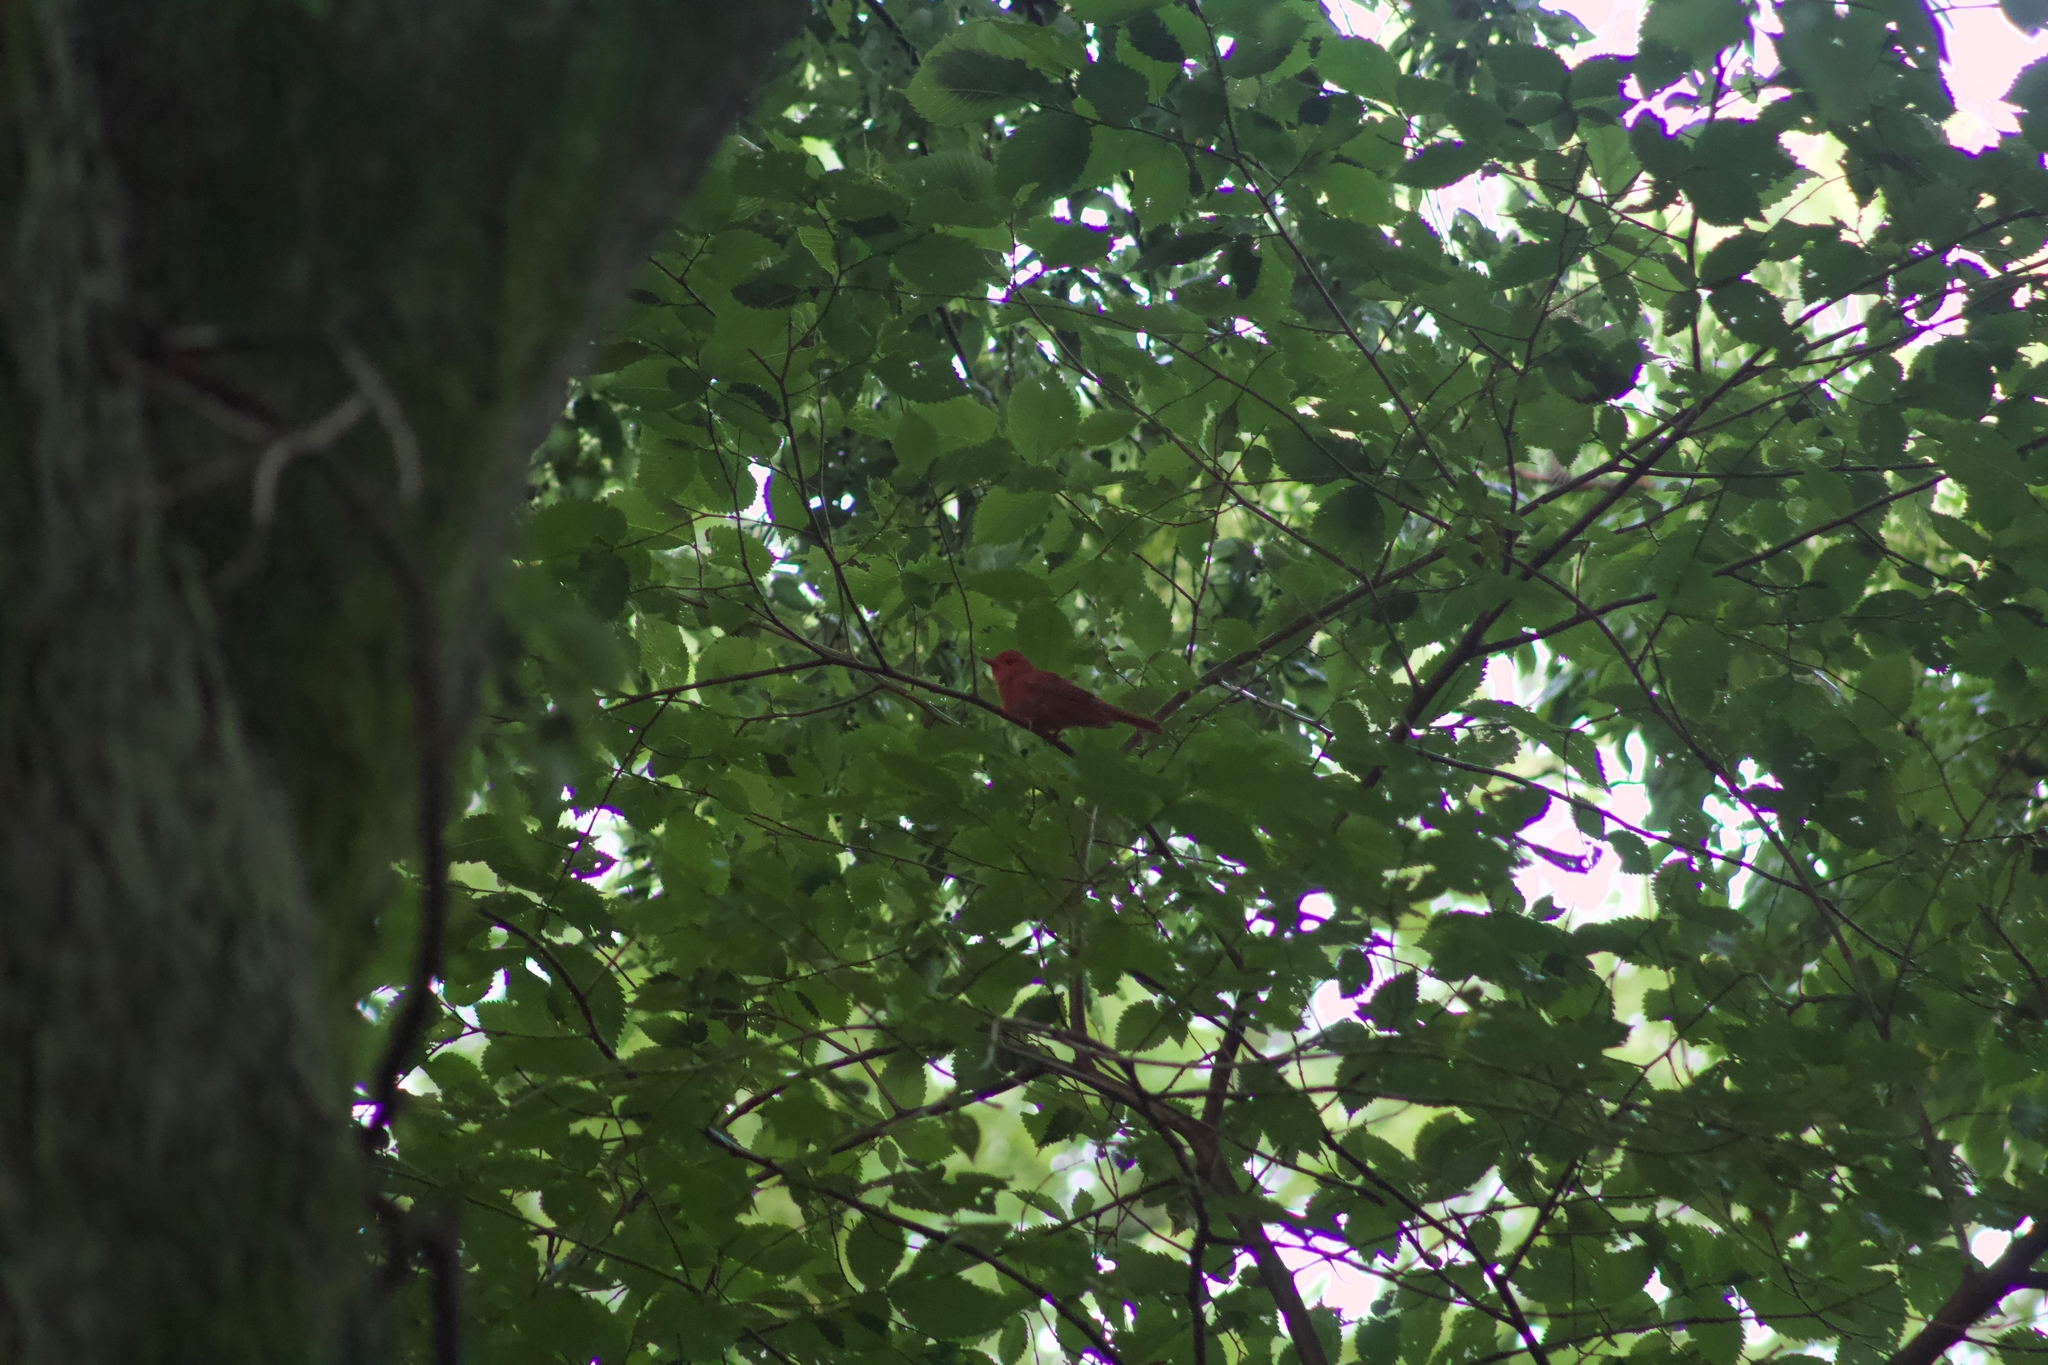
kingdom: Animalia
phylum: Chordata
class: Aves
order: Passeriformes
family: Cardinalidae
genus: Piranga
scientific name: Piranga rubra
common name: Summer tanager
